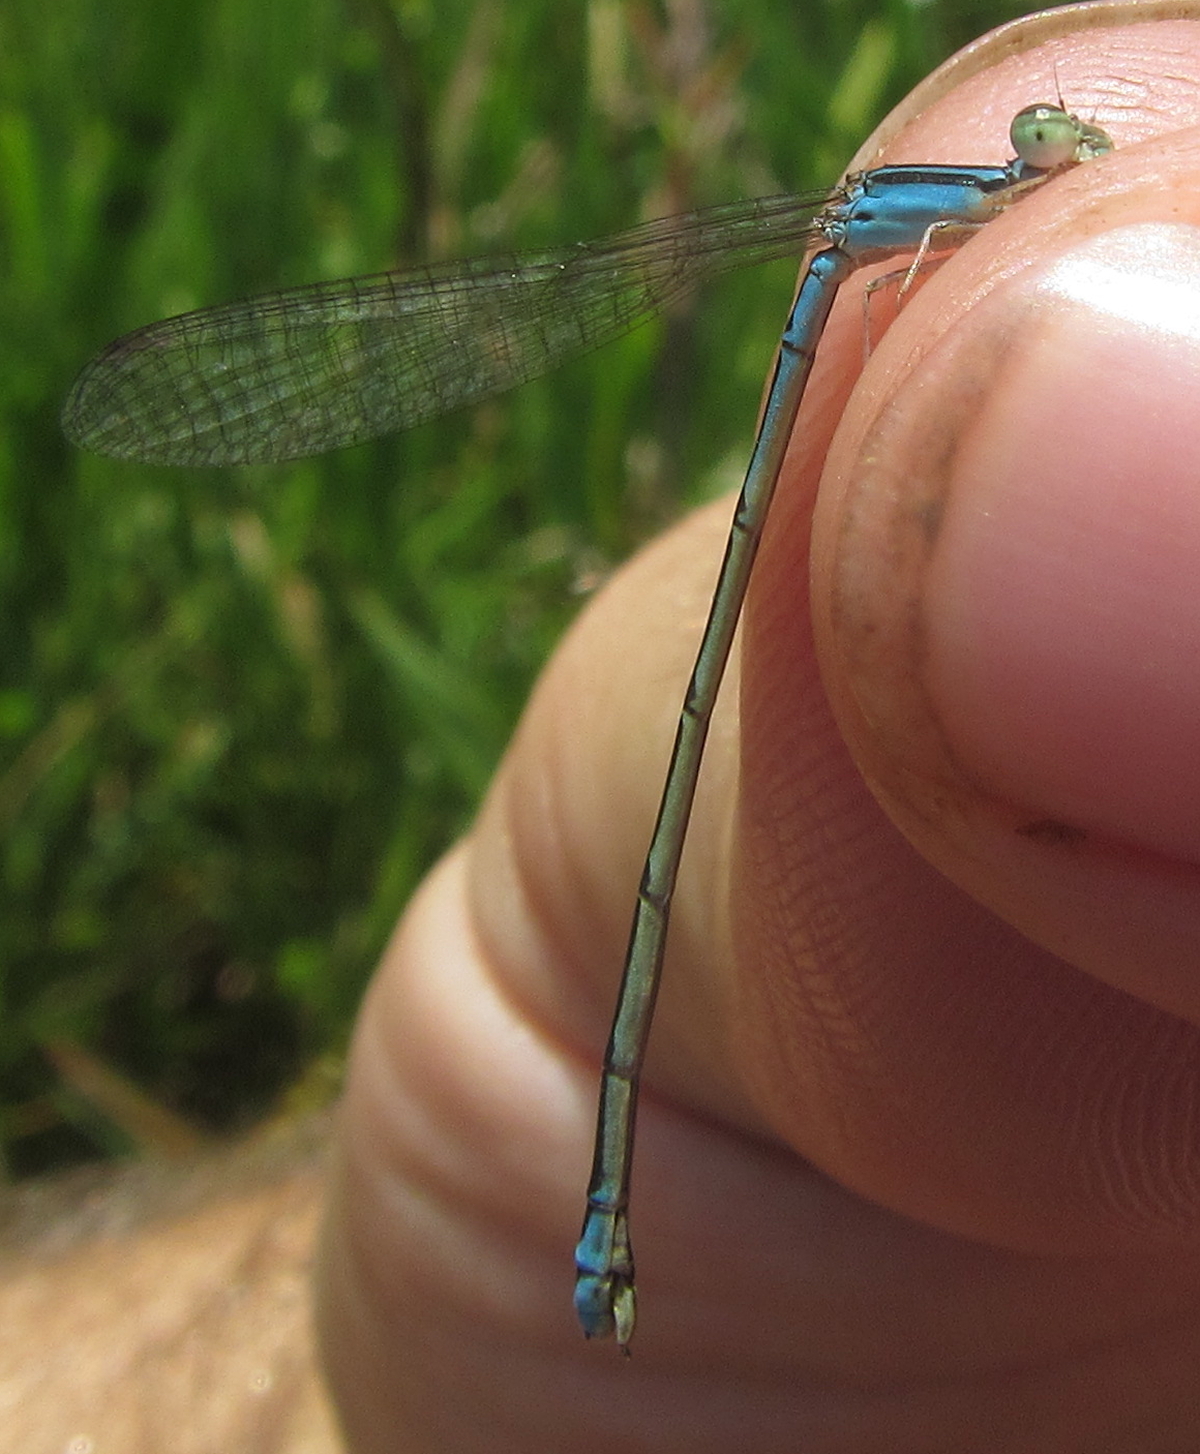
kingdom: Animalia
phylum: Arthropoda
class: Insecta
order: Odonata
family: Coenagrionidae
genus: Africallagma
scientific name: Africallagma fractum
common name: Slender bluet
